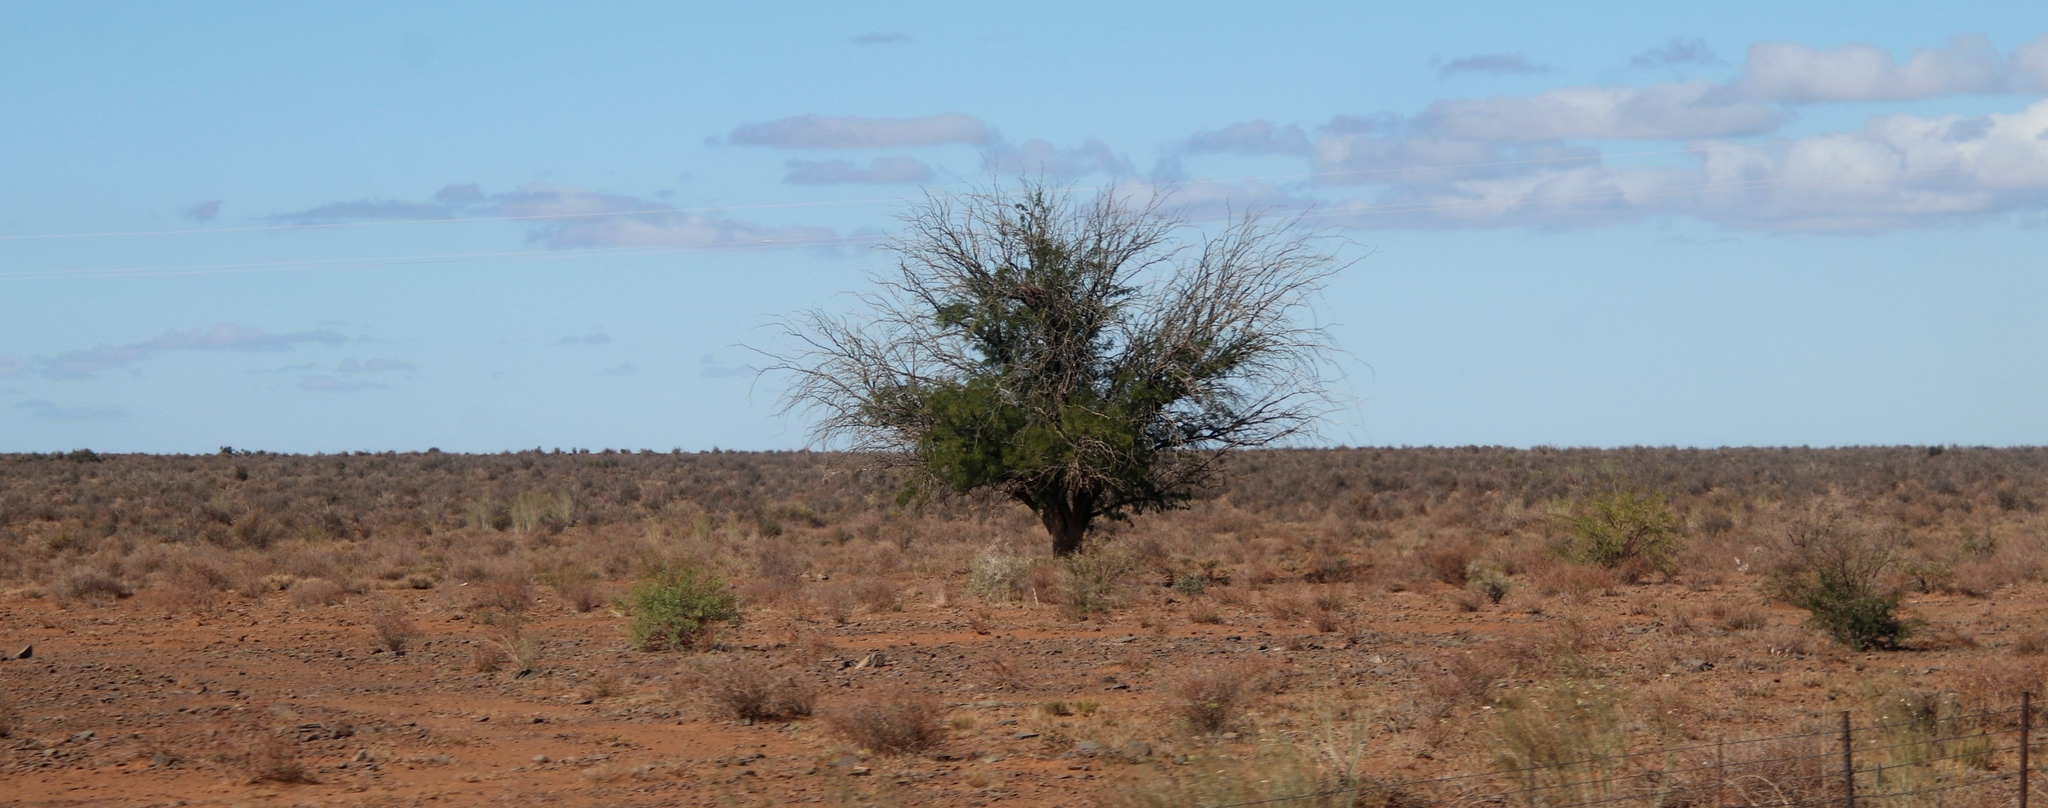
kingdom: Plantae
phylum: Tracheophyta
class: Magnoliopsida
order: Fabales
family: Fabaceae
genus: Vachellia
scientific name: Vachellia karroo
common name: Sweet thorn
